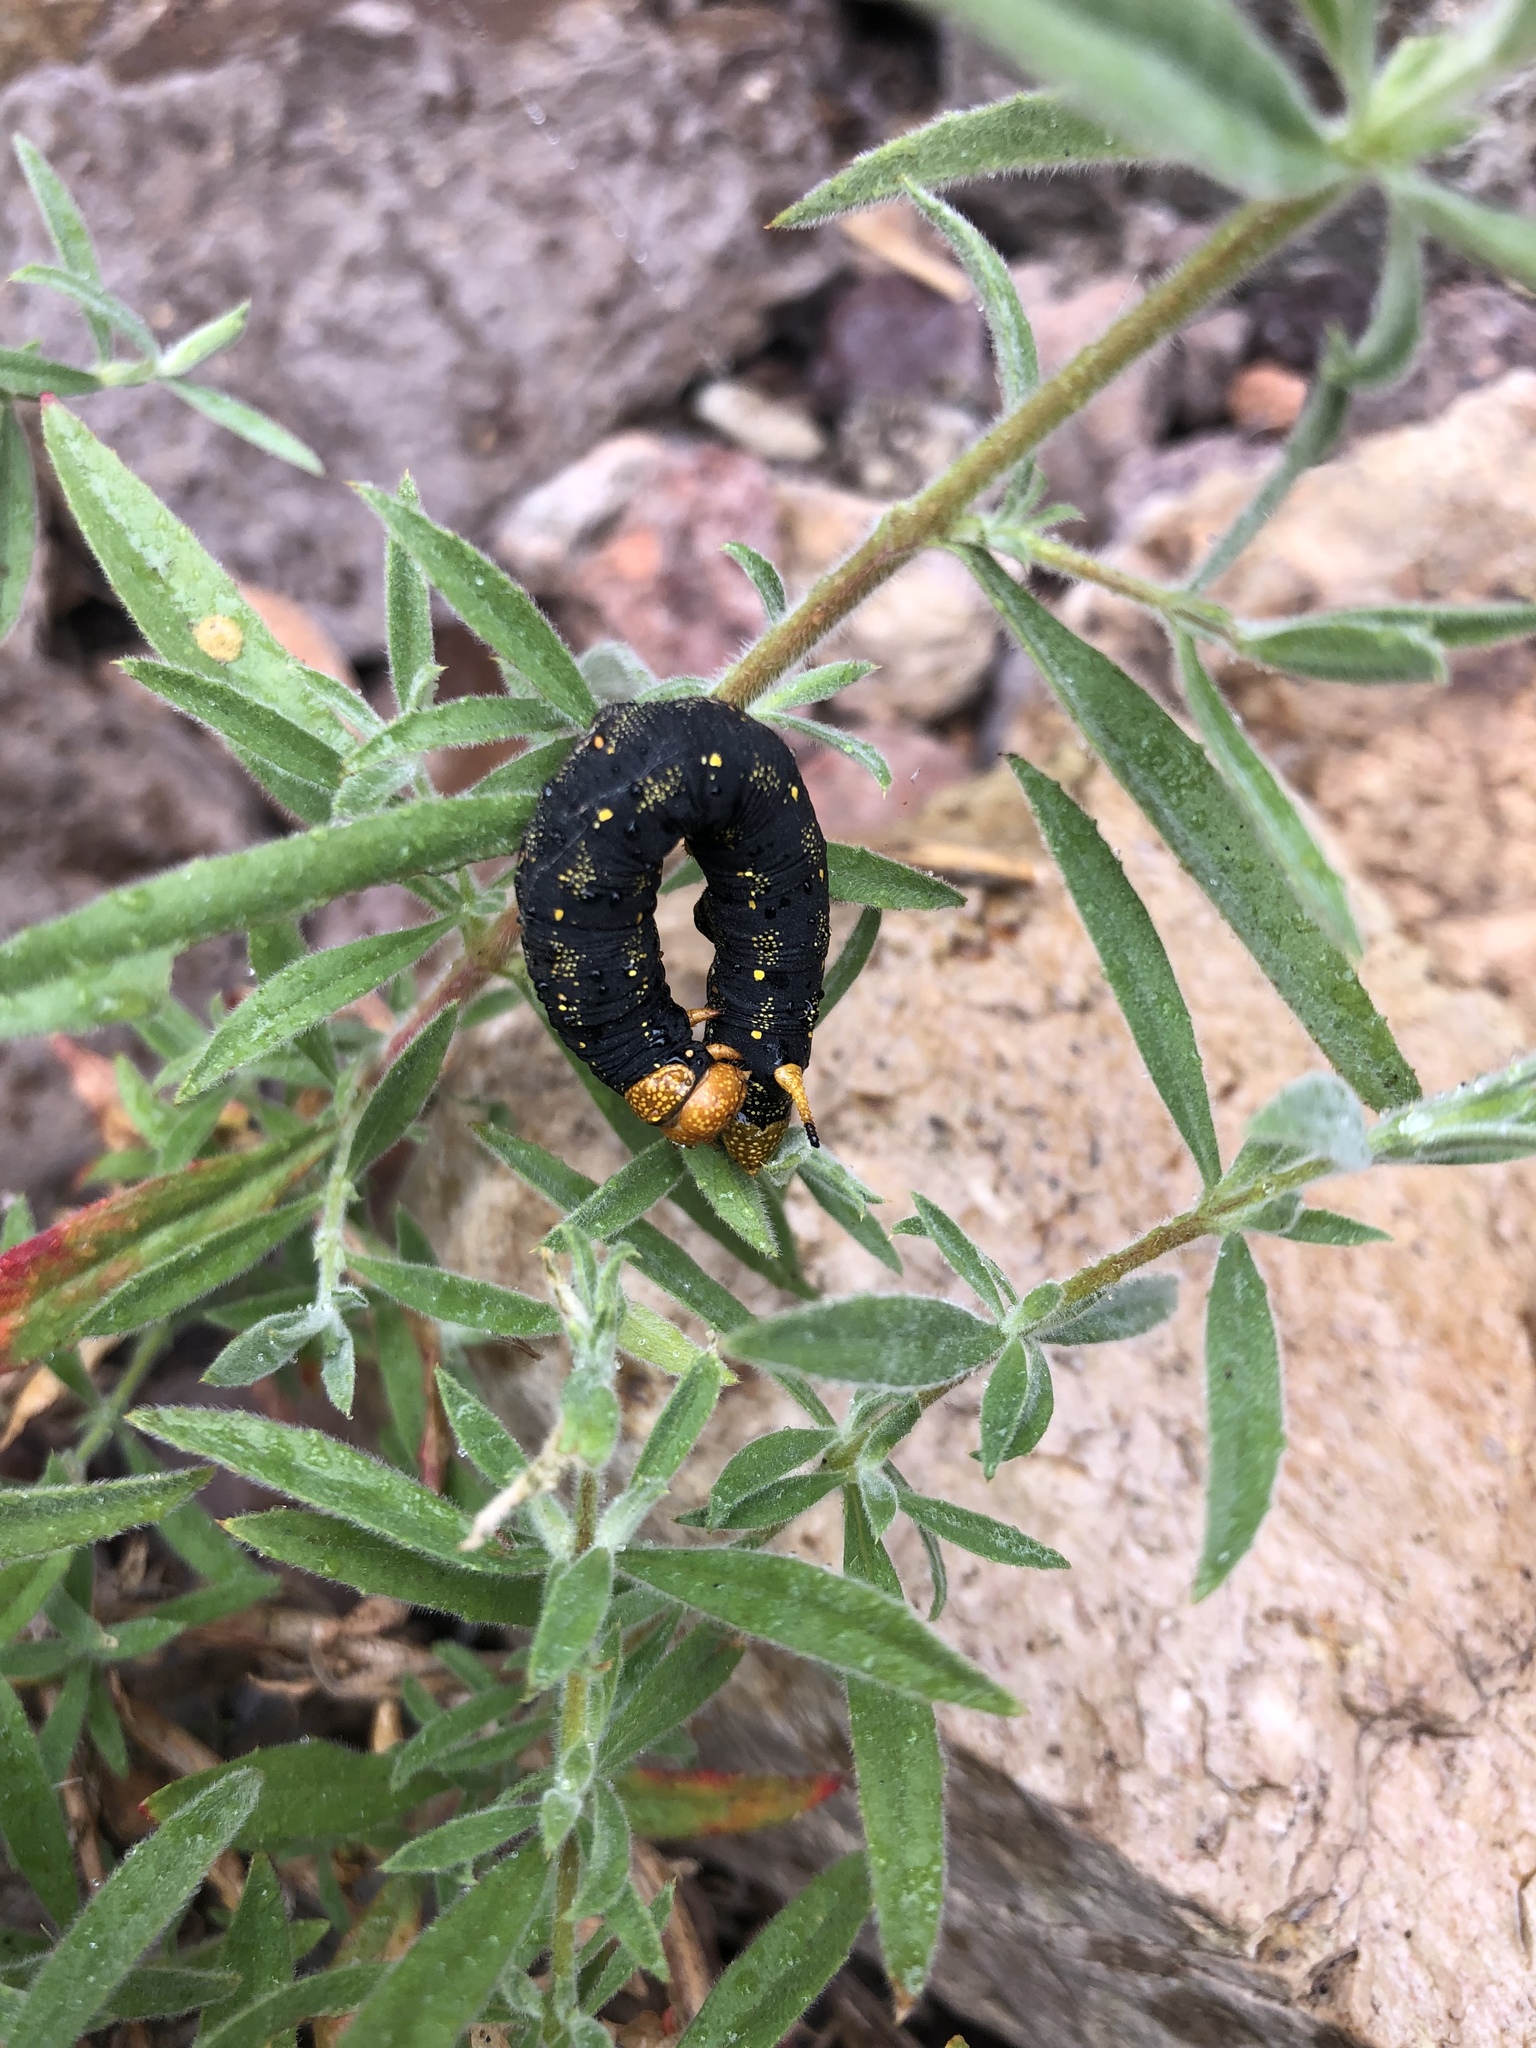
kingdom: Animalia
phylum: Arthropoda
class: Insecta
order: Lepidoptera
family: Sphingidae
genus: Hyles
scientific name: Hyles lineata
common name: White-lined sphinx
